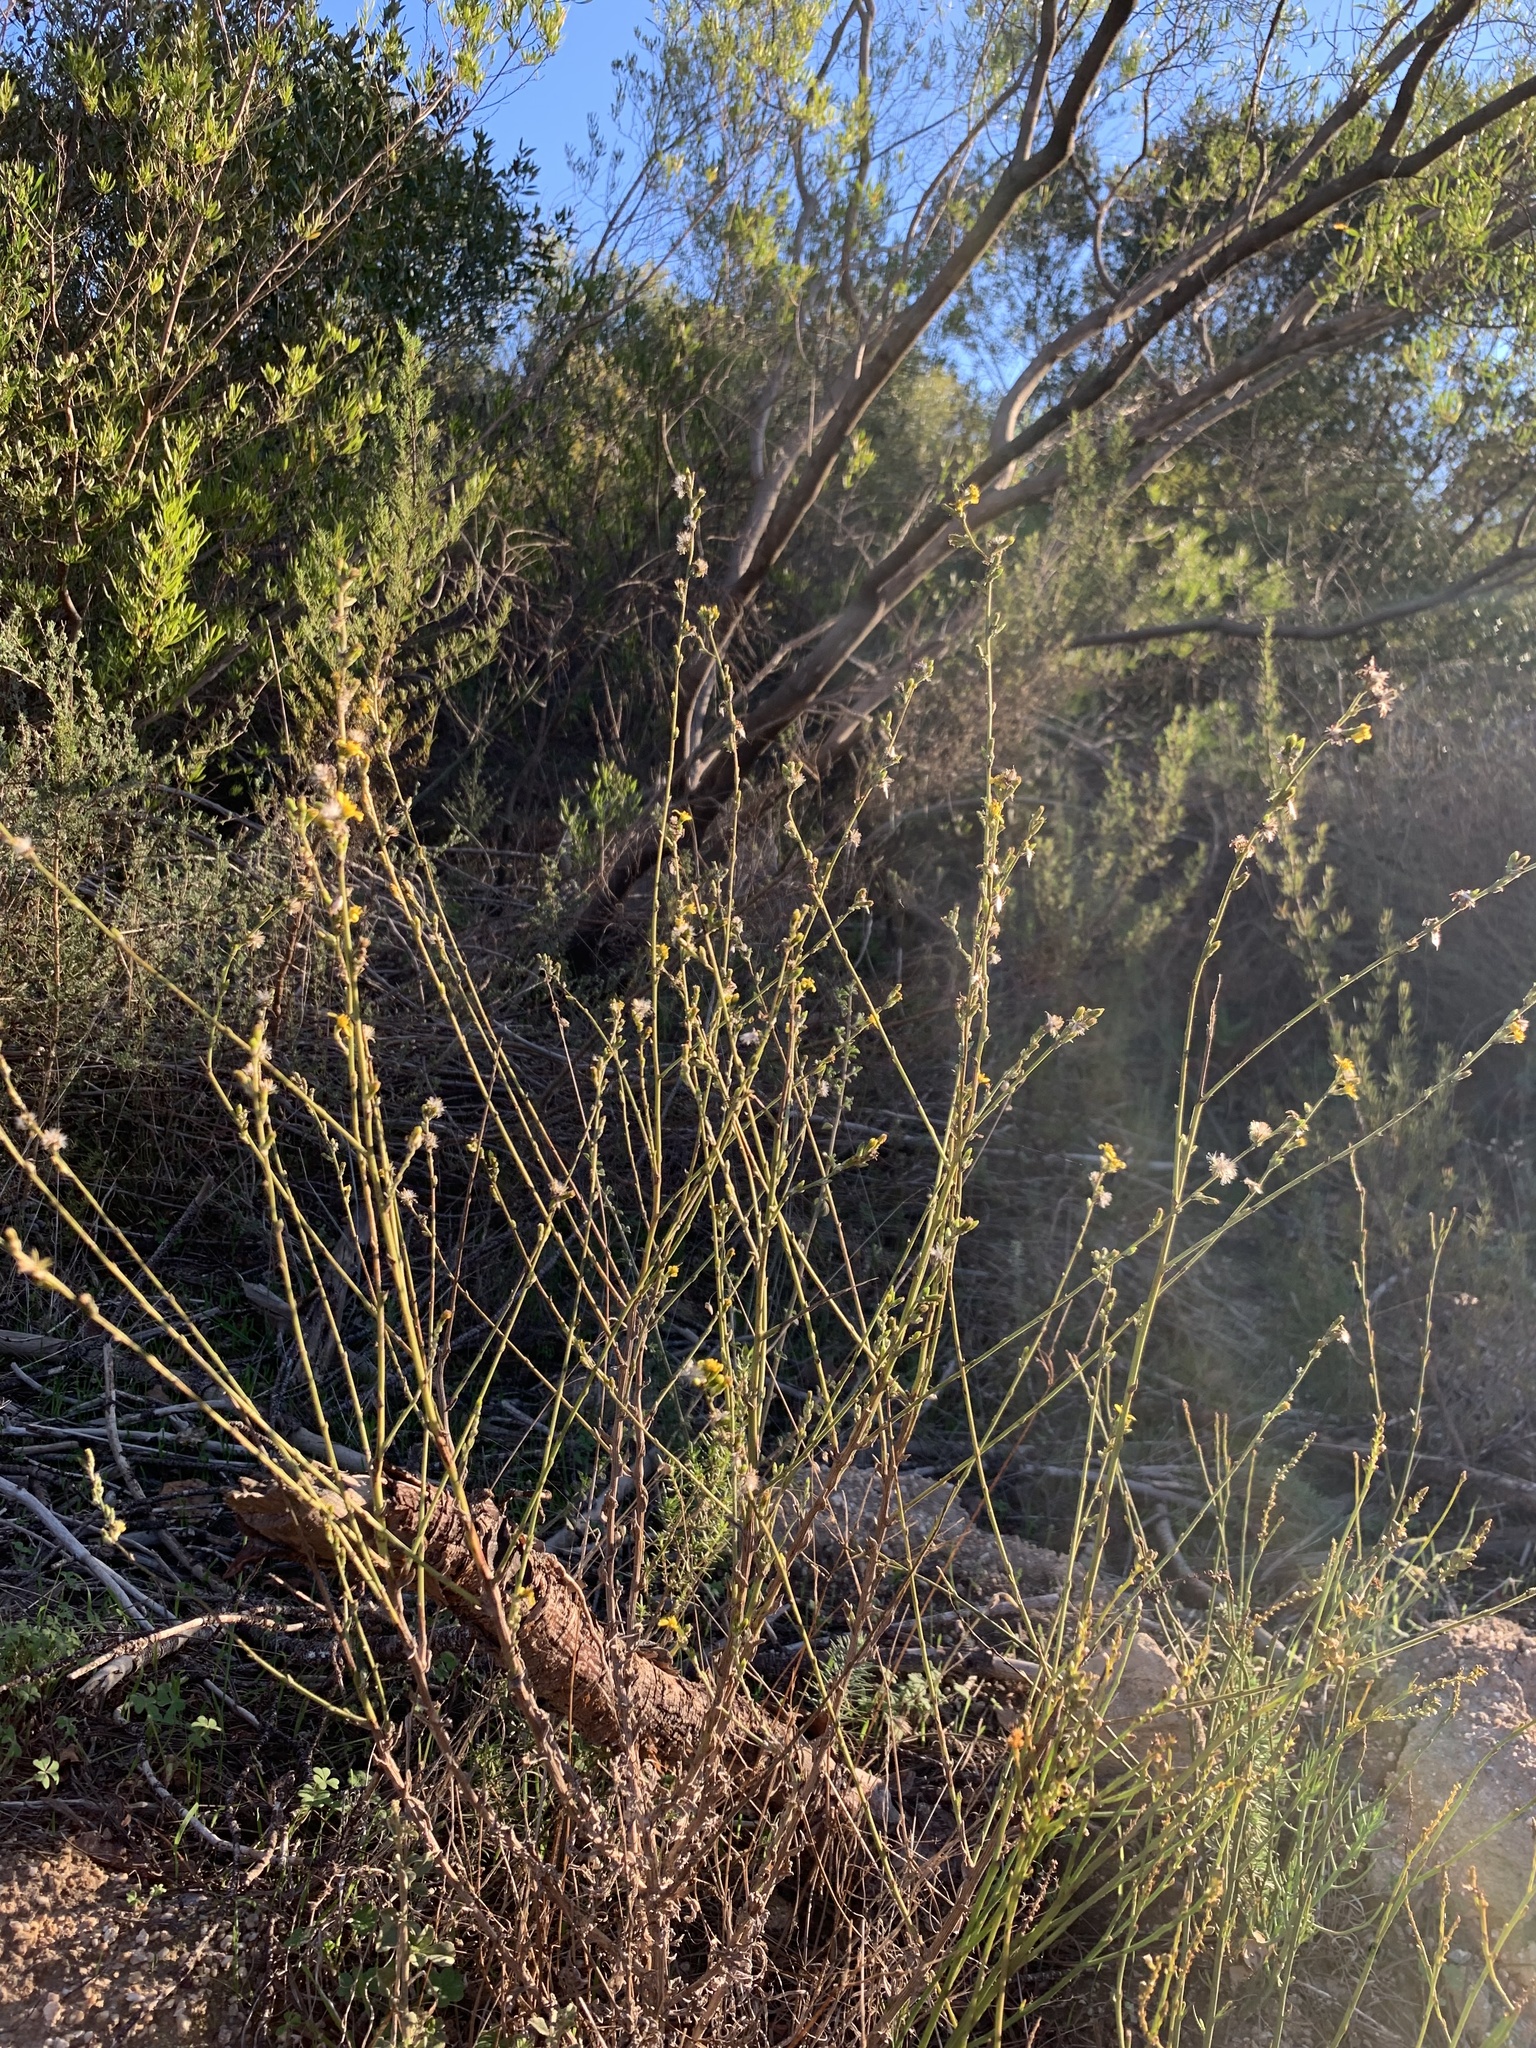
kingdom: Plantae
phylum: Tracheophyta
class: Magnoliopsida
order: Asterales
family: Asteraceae
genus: Senecio
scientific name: Senecio pubigerus
